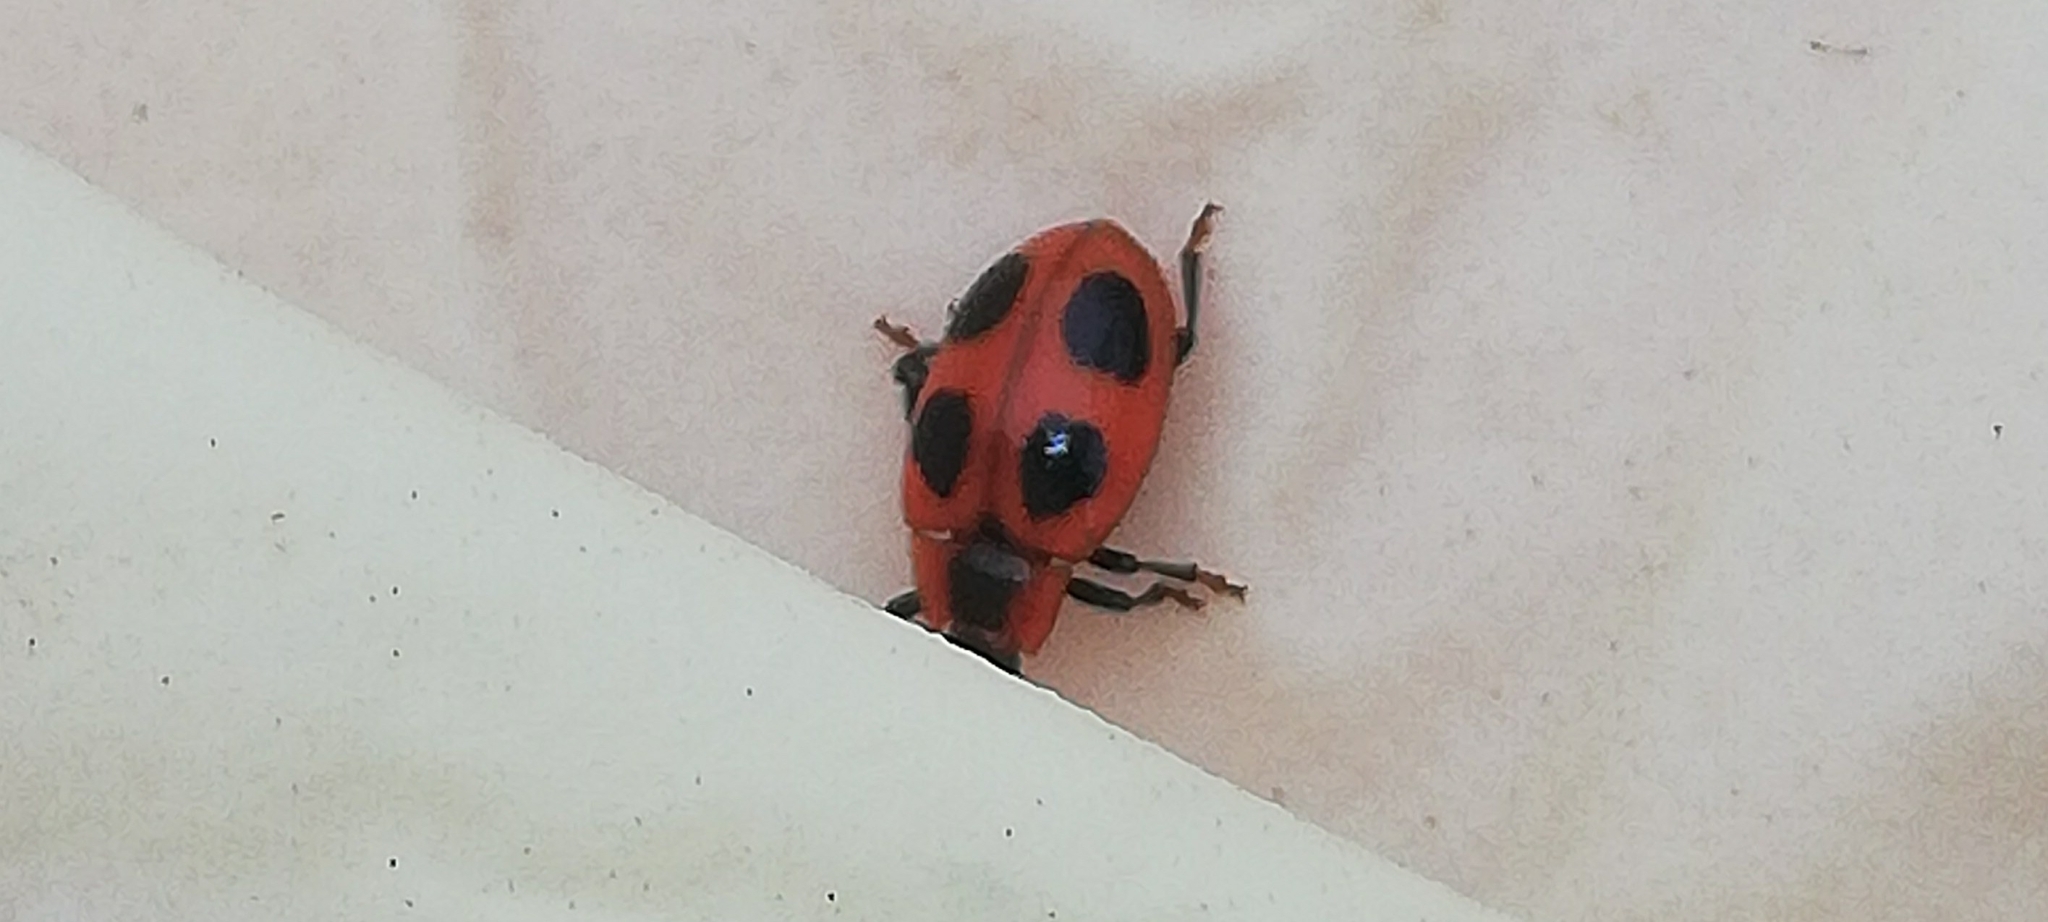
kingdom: Animalia
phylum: Arthropoda
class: Insecta
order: Coleoptera
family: Endomychidae
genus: Endomychus
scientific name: Endomychus coccineus
